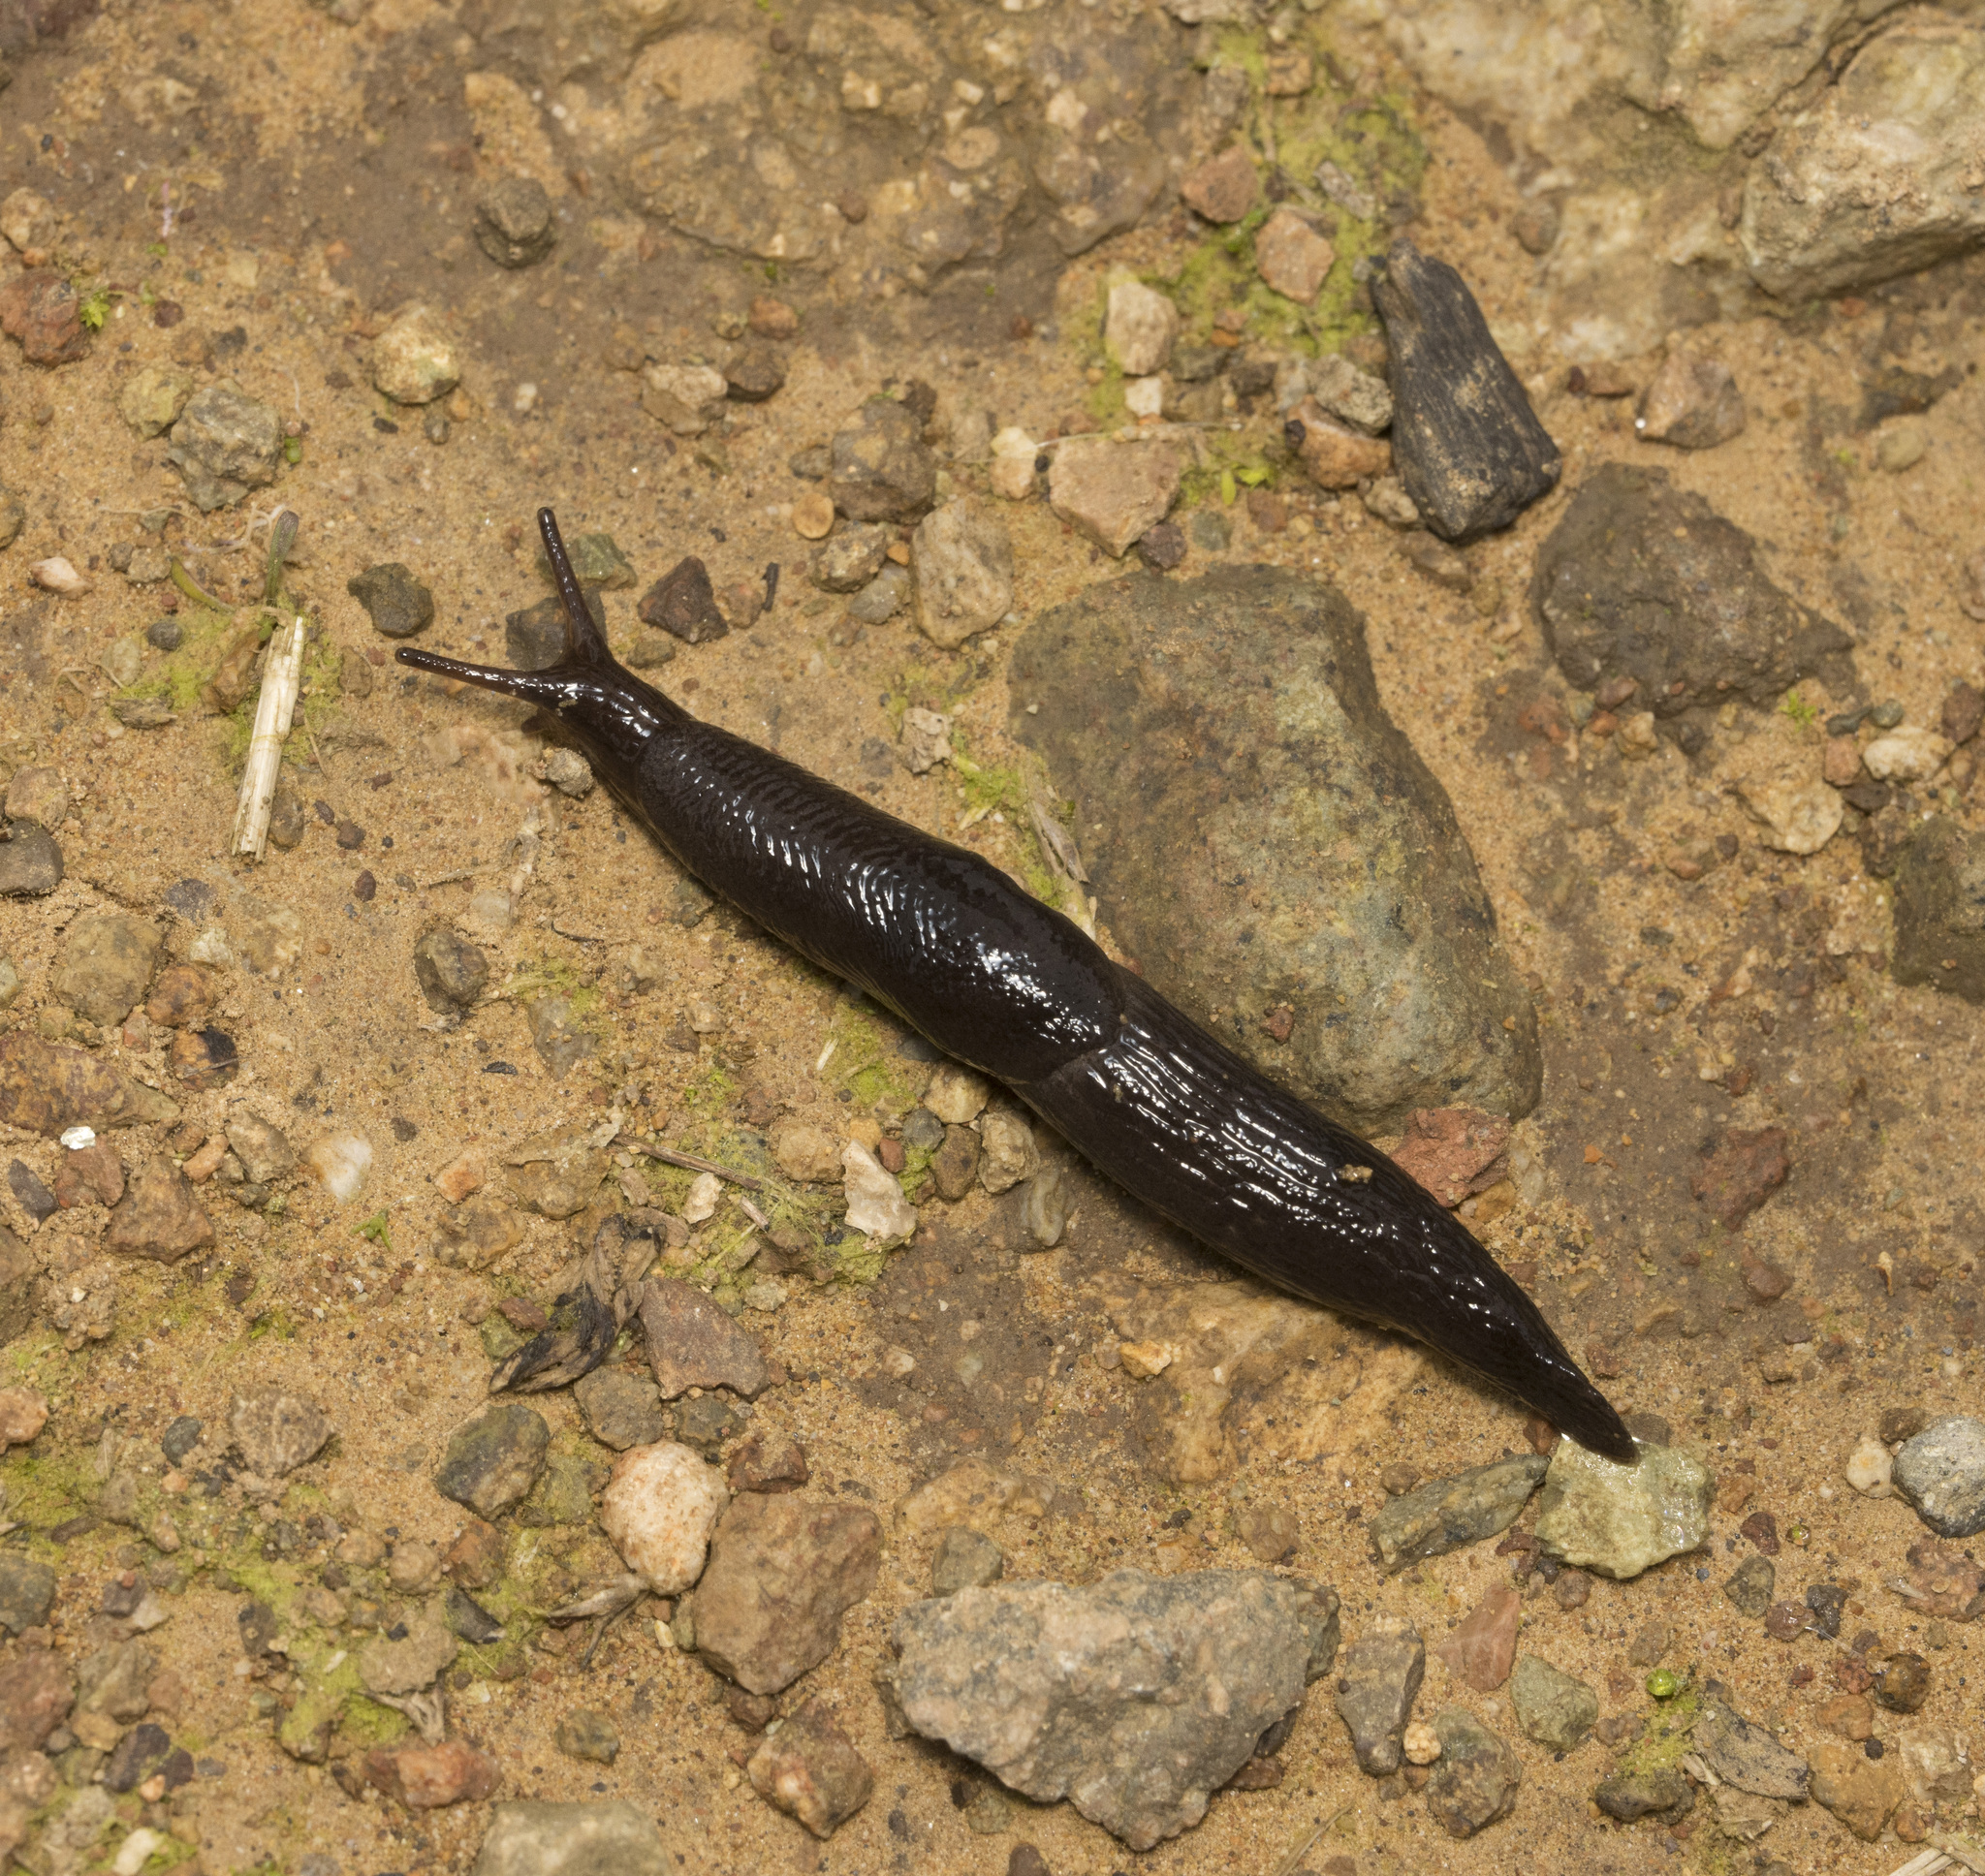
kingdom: Animalia
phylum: Mollusca
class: Gastropoda
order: Stylommatophora
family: Agriolimacidae
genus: Deroceras
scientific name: Deroceras laeve
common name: Marsh slug
